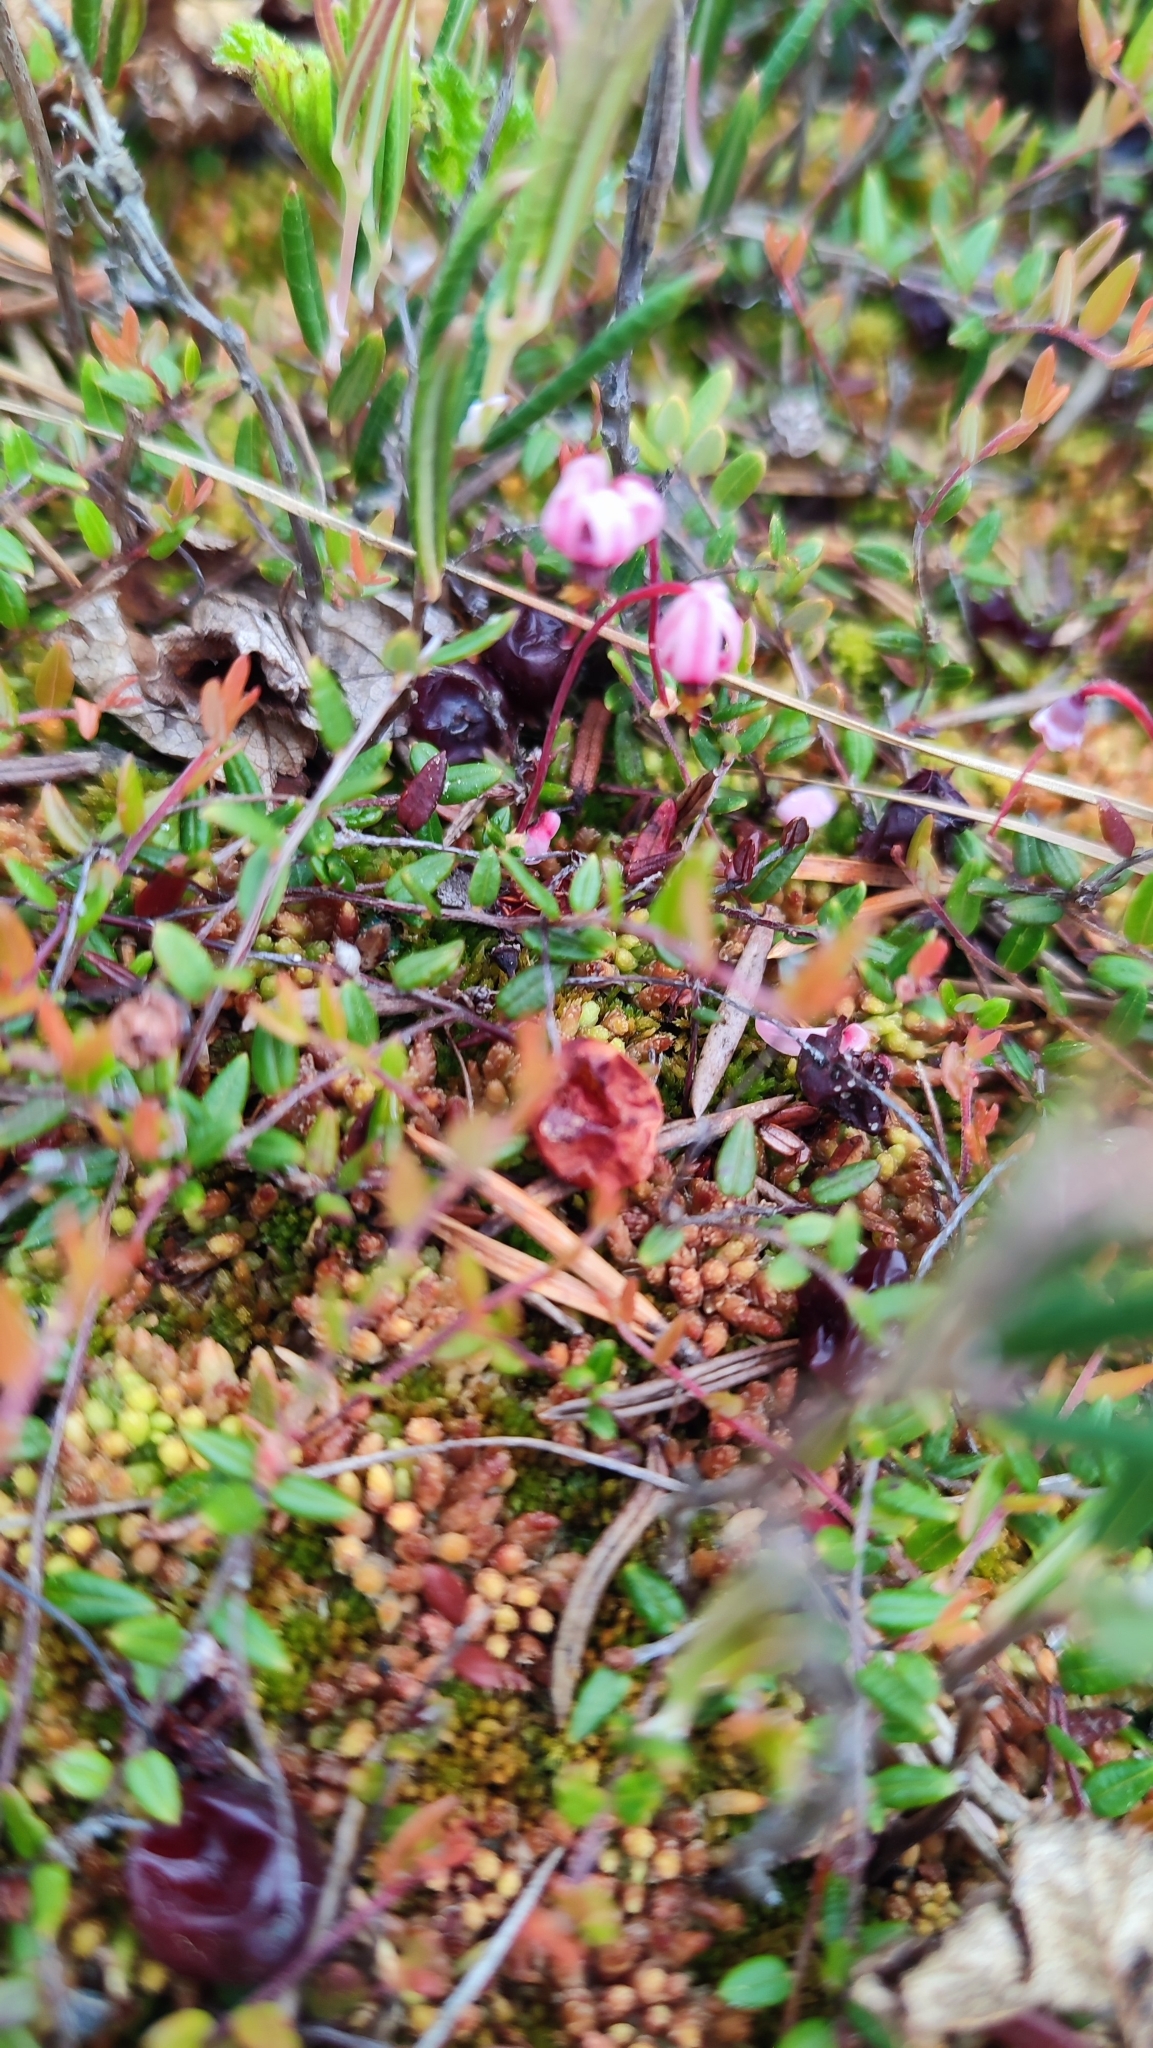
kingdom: Plantae
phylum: Tracheophyta
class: Magnoliopsida
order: Ericales
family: Ericaceae
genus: Vaccinium
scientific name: Vaccinium oxycoccos
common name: Cranberry
